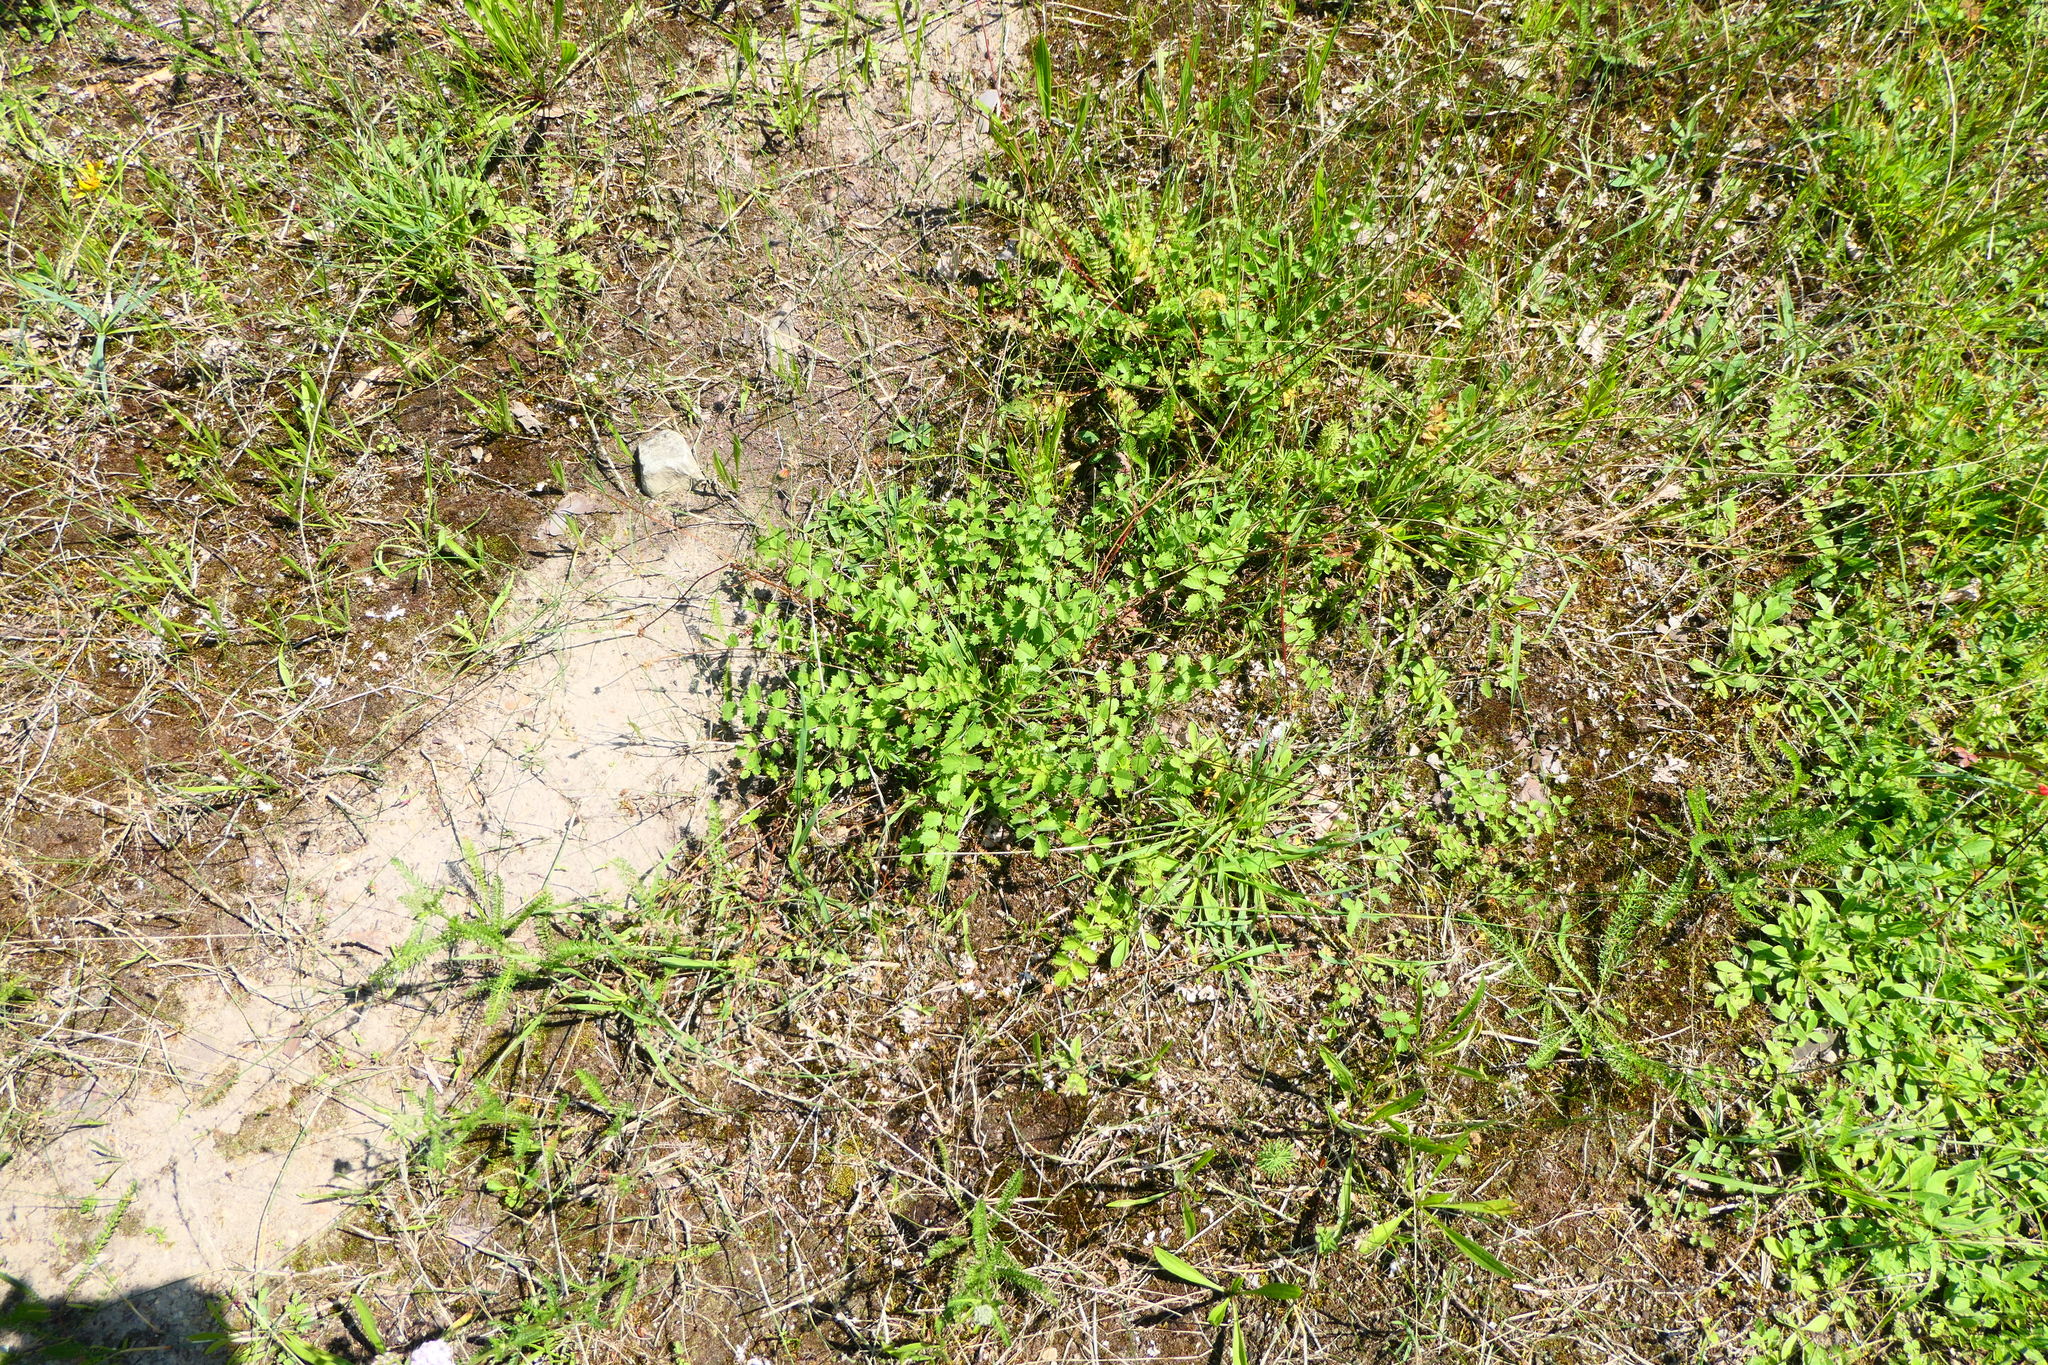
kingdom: Plantae
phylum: Tracheophyta
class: Magnoliopsida
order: Rosales
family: Rosaceae
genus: Poterium
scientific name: Poterium sanguisorba
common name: Salad burnet
